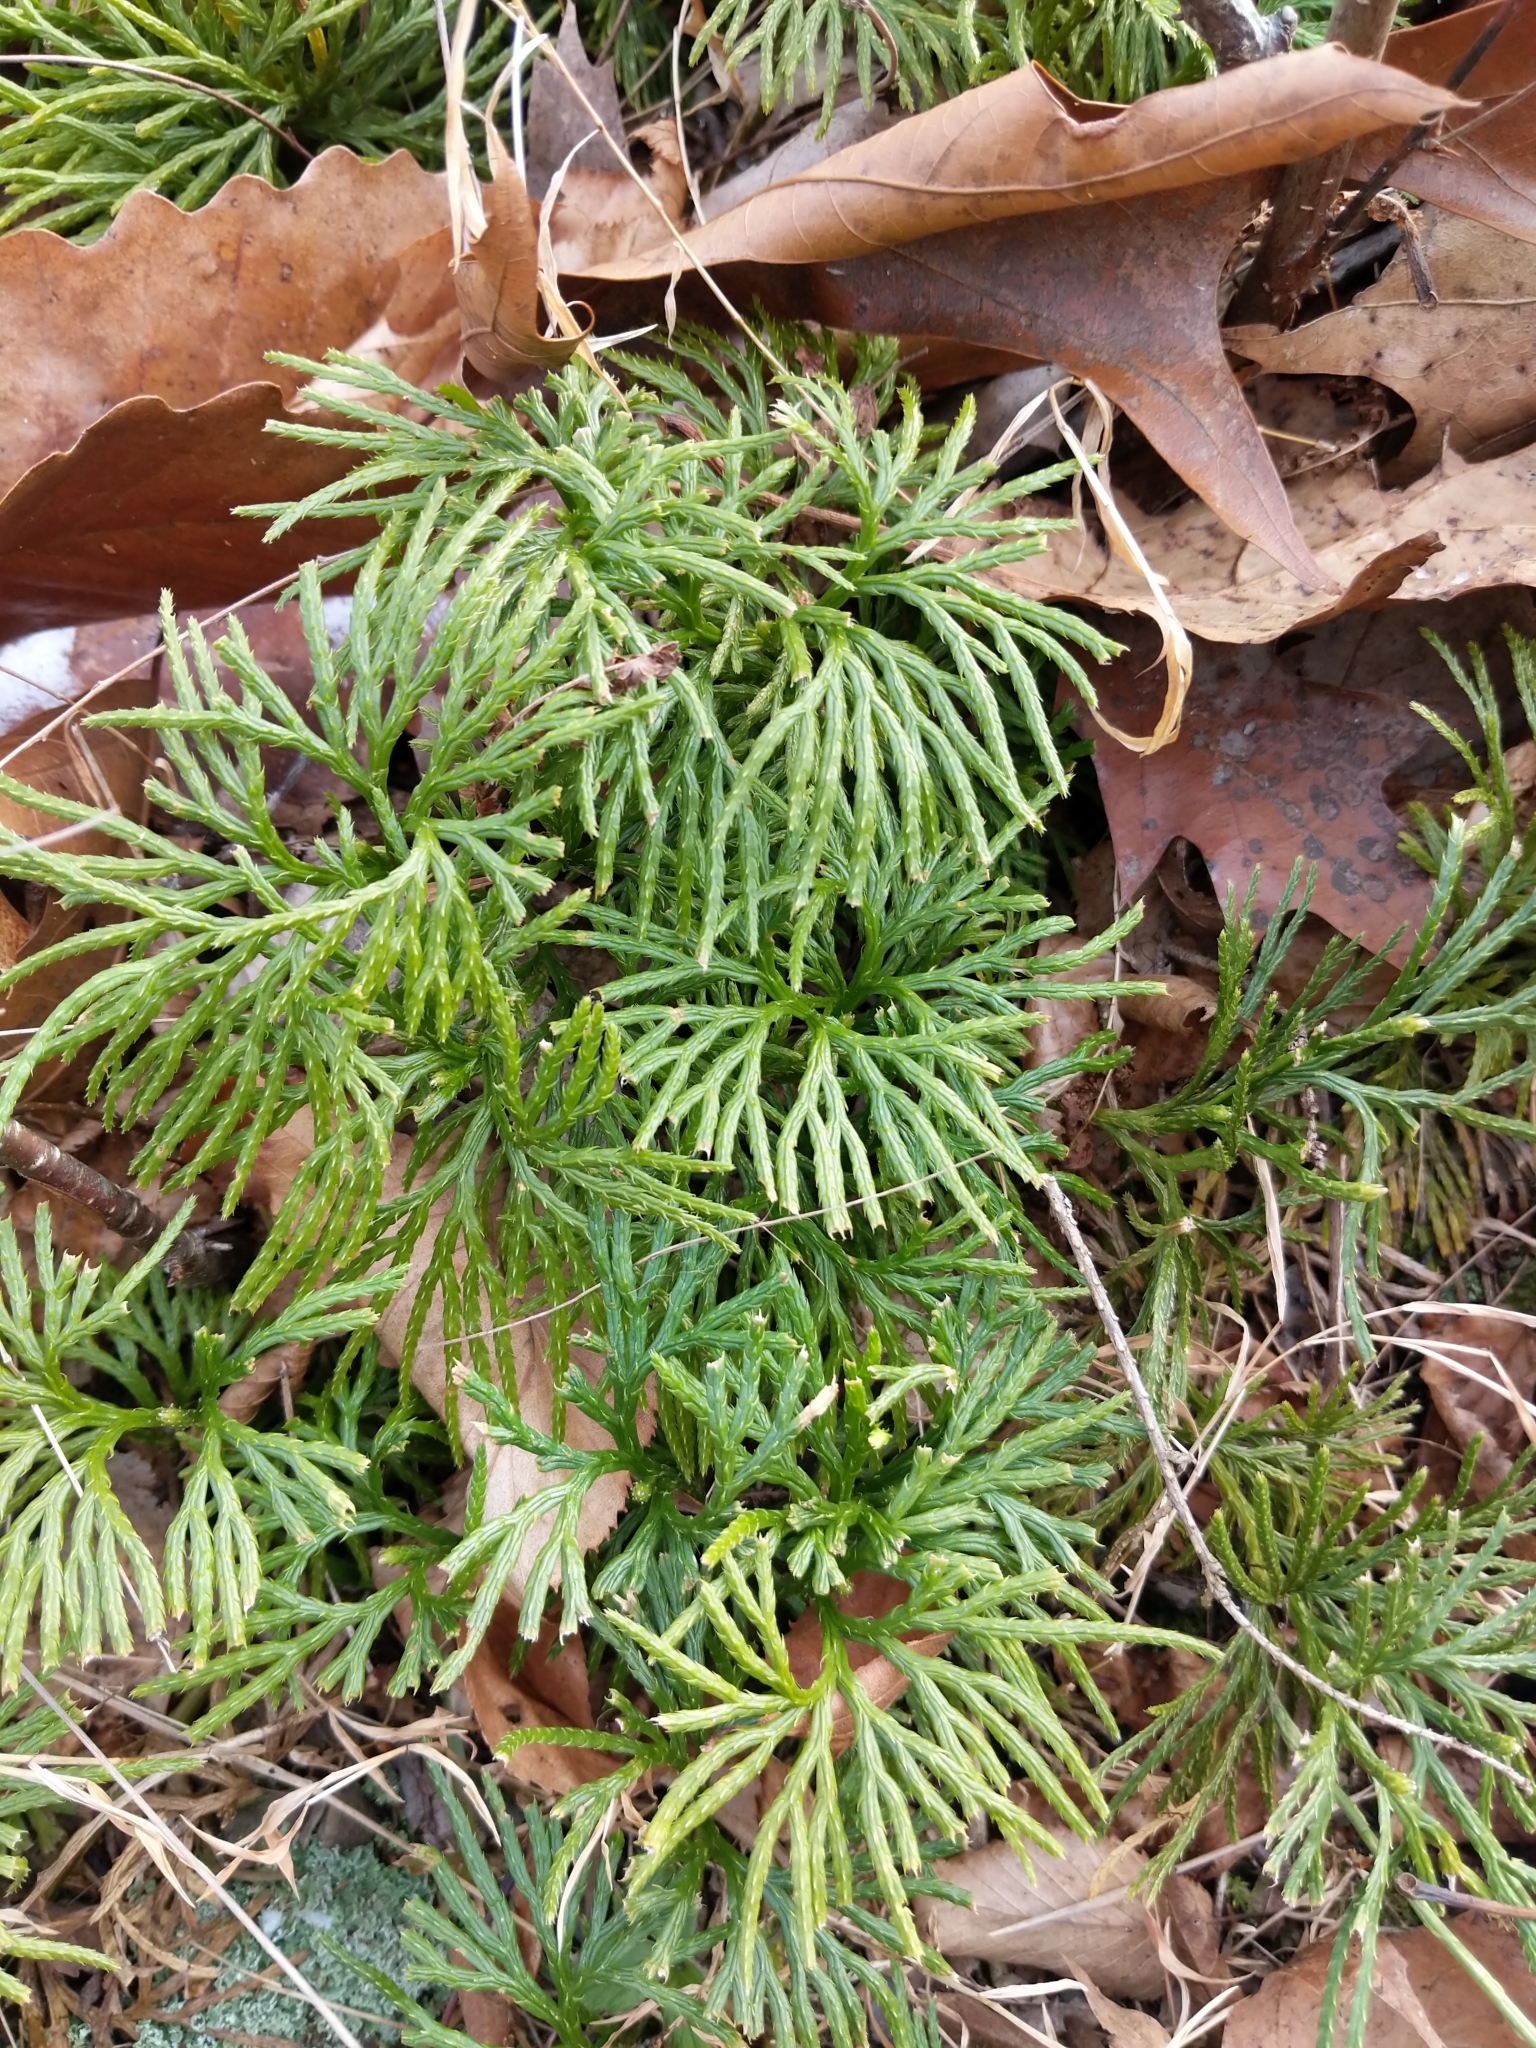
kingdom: Plantae
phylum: Tracheophyta
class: Lycopodiopsida
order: Lycopodiales
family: Lycopodiaceae
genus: Diphasiastrum
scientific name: Diphasiastrum digitatum
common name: Southern running-pine
